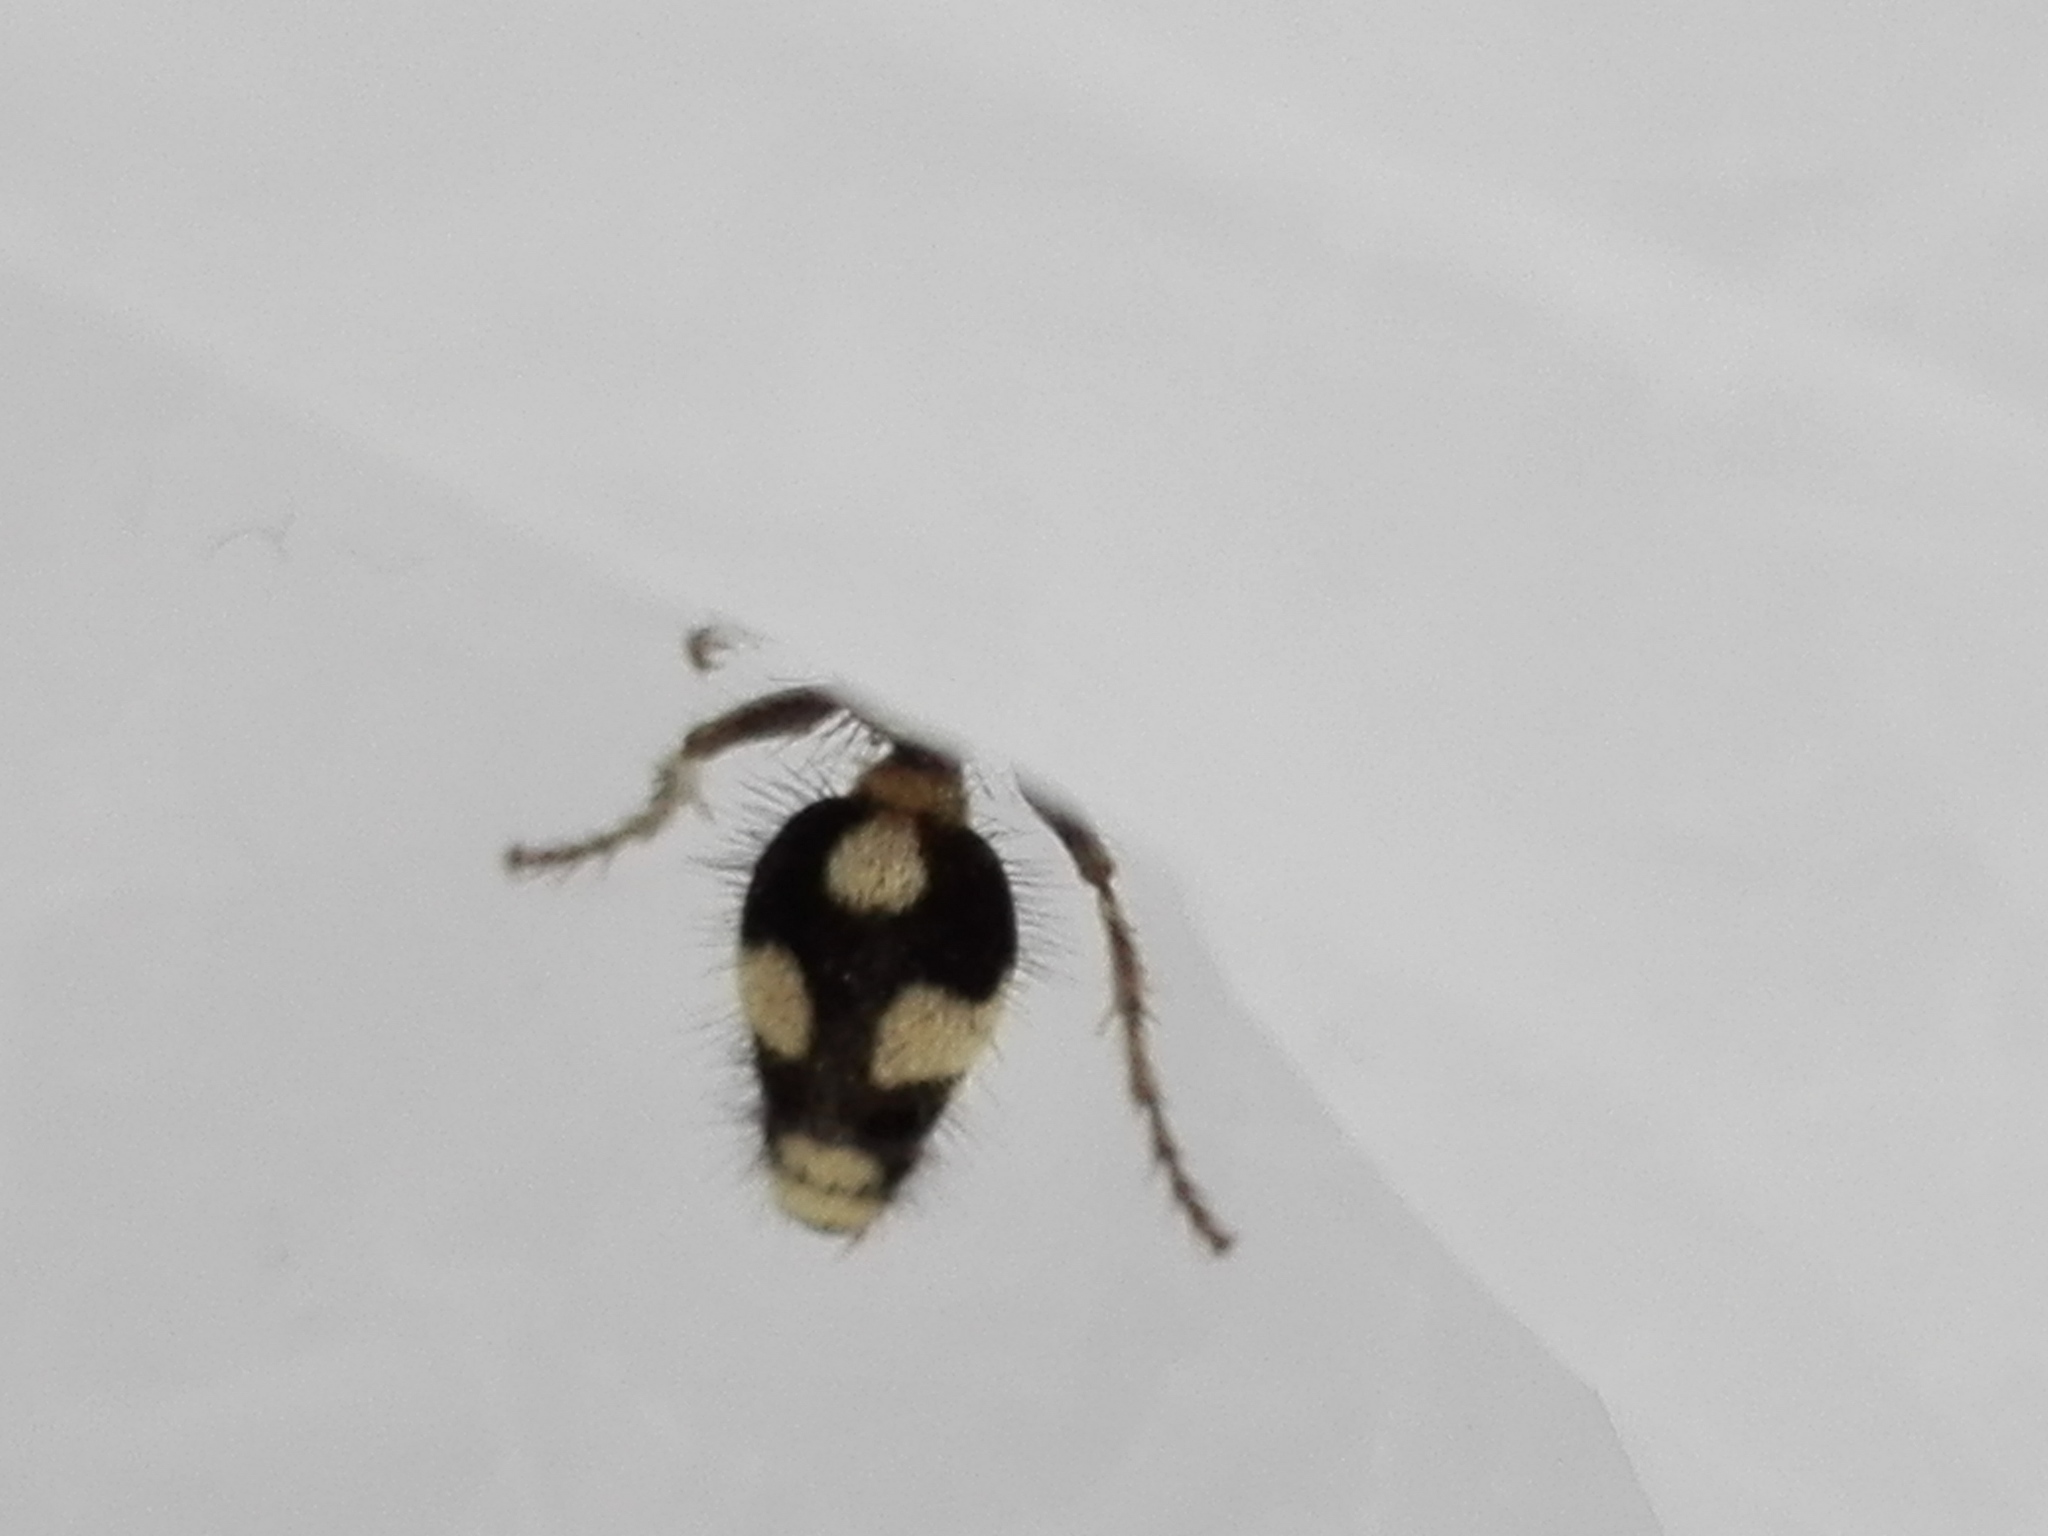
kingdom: Animalia
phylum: Arthropoda
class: Insecta
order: Hymenoptera
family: Mutillidae
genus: Dasylabris
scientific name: Dasylabris atrata
